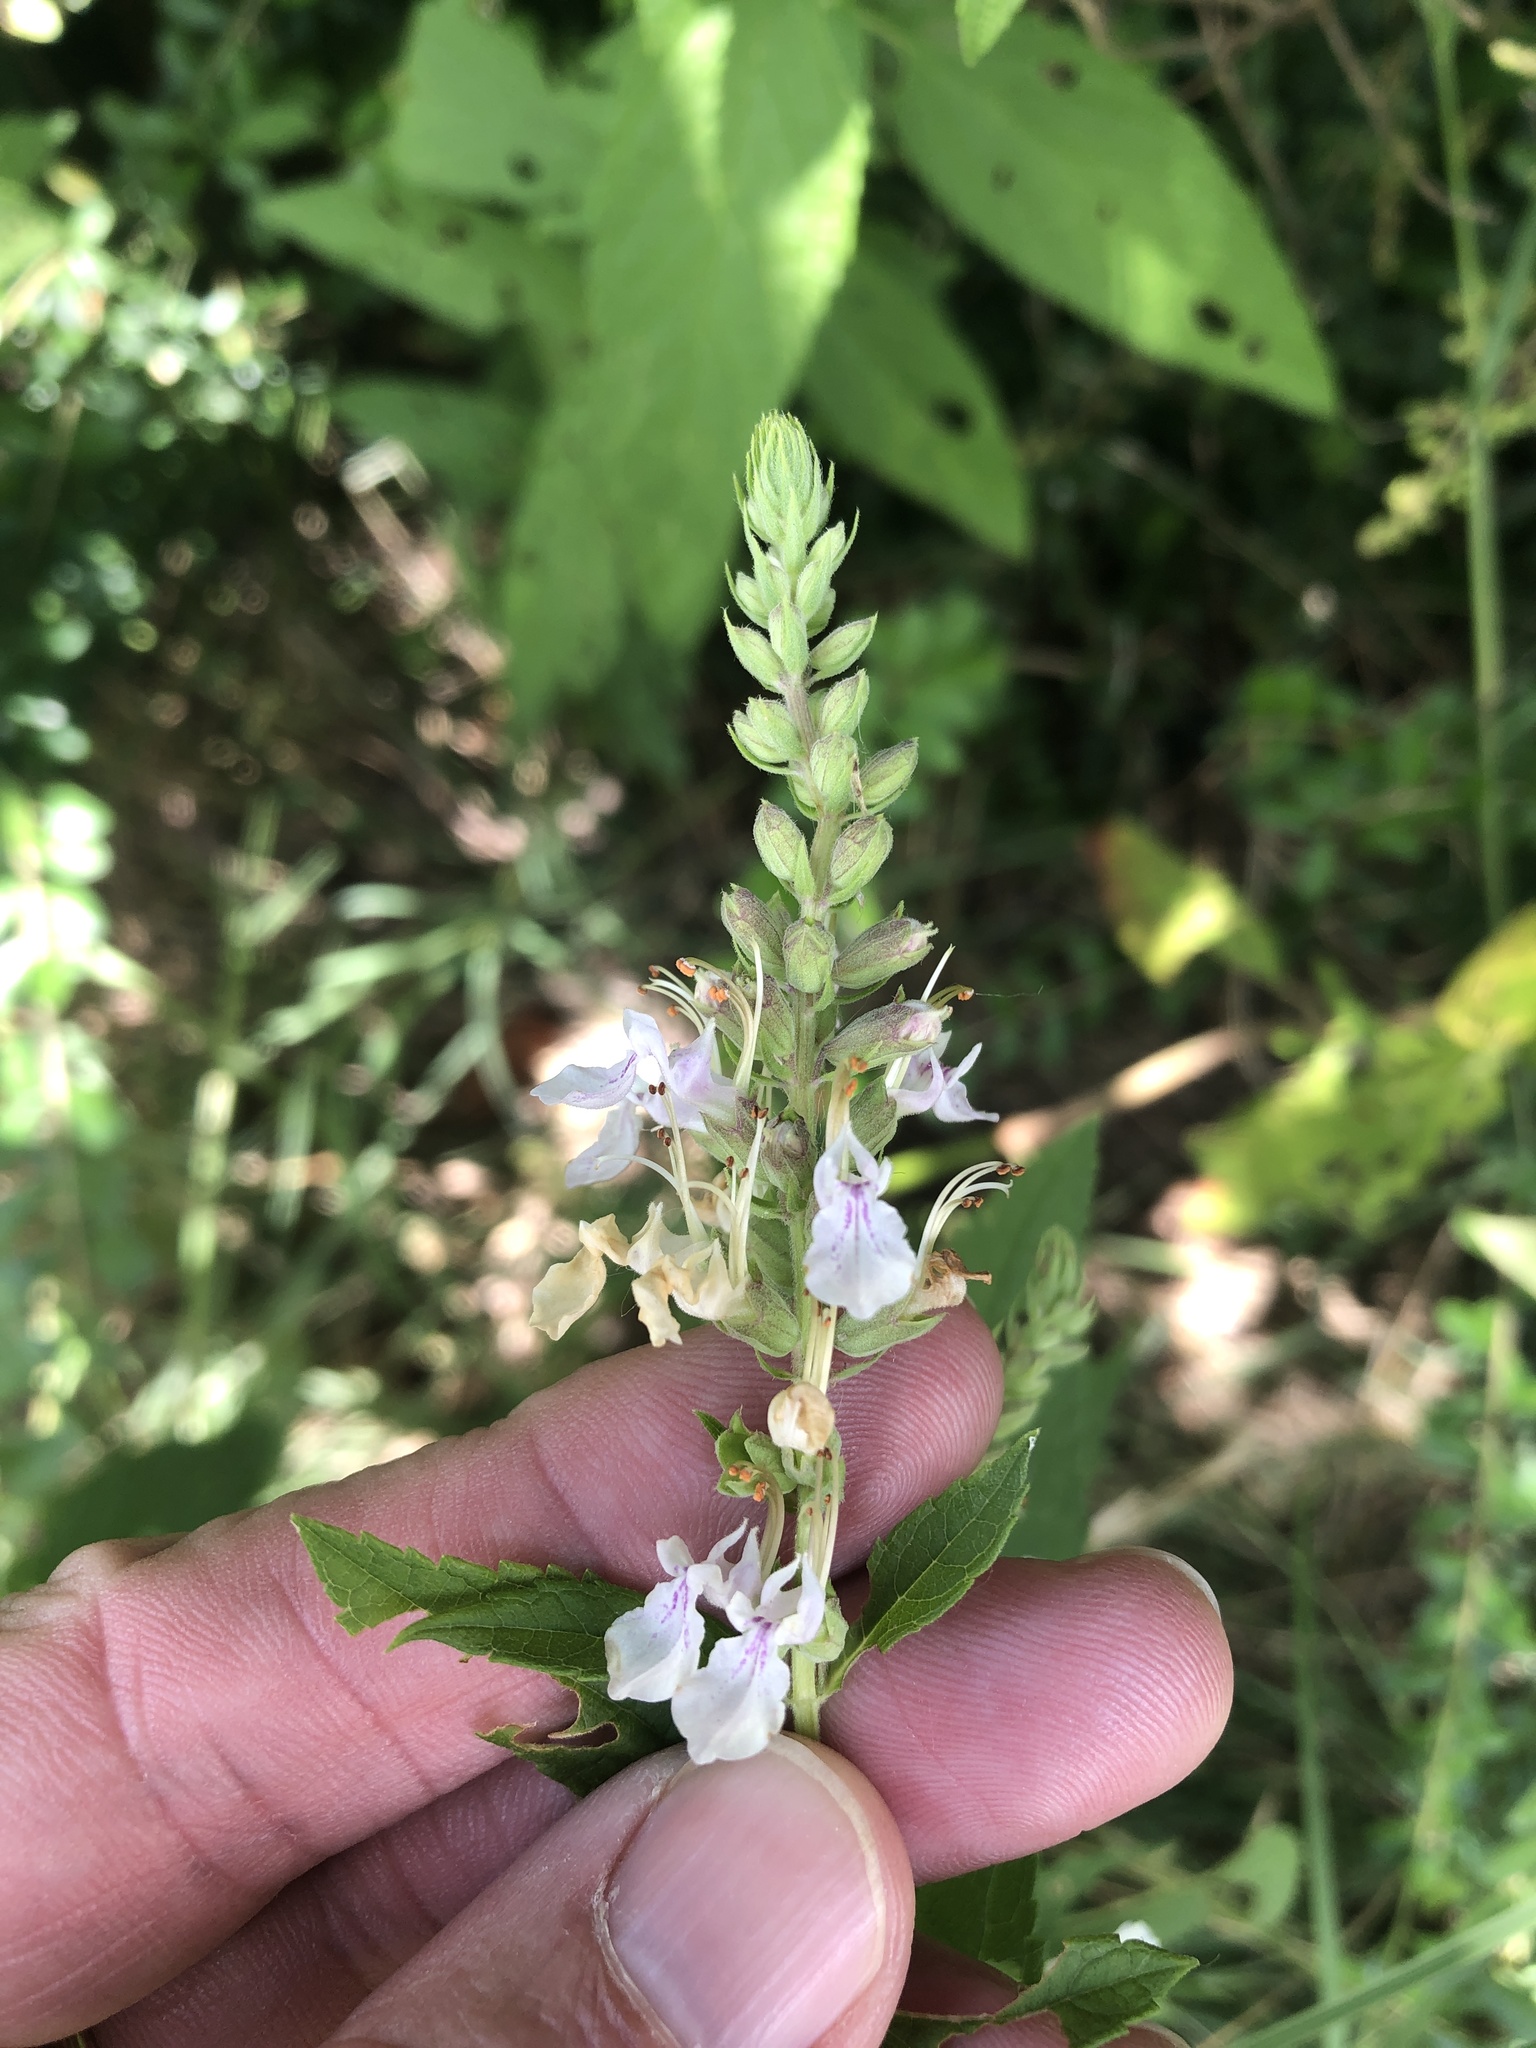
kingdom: Plantae
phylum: Tracheophyta
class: Magnoliopsida
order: Lamiales
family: Lamiaceae
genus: Teucrium
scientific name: Teucrium canadense
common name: American germander
